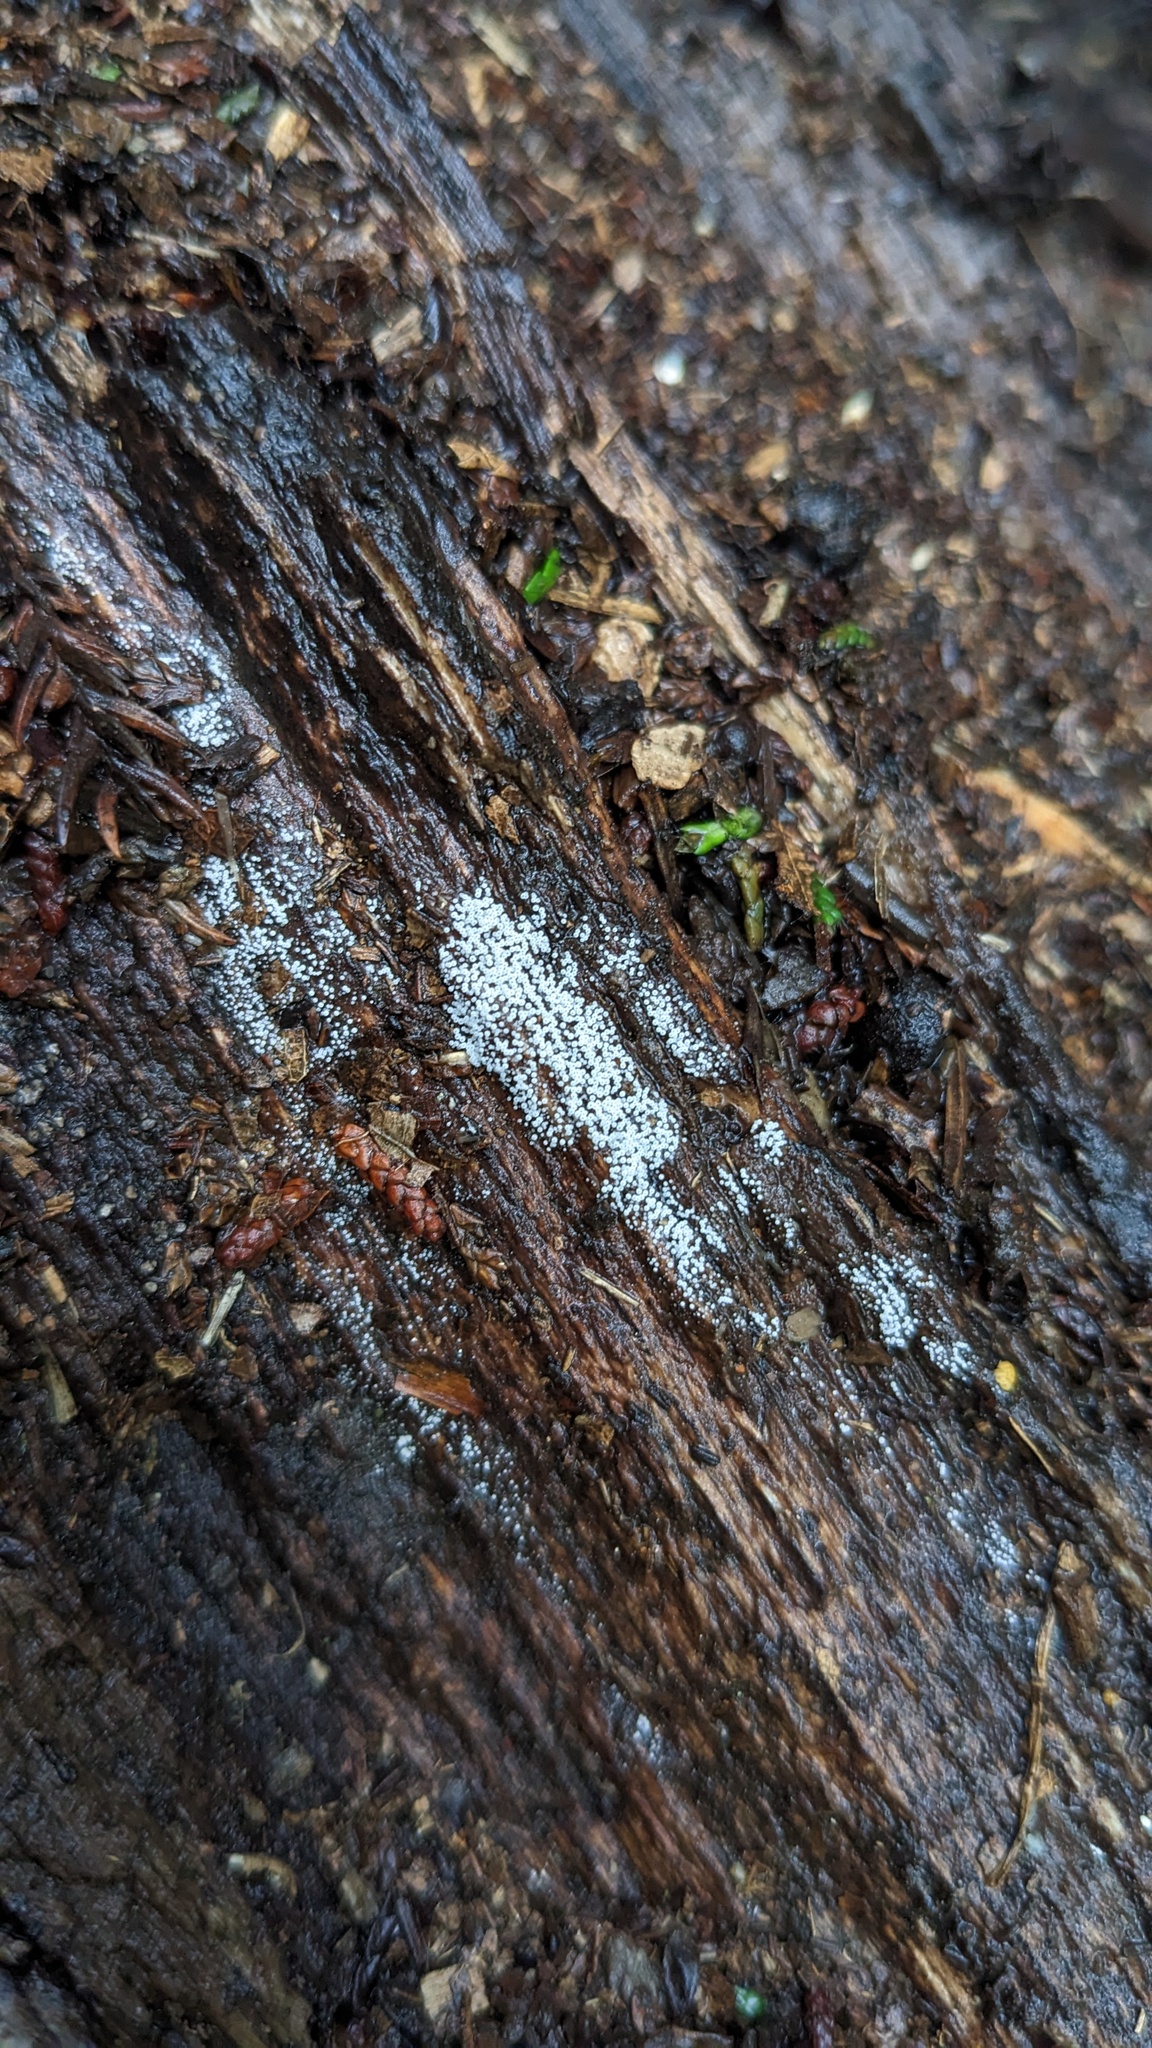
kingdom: Fungi
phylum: Basidiomycota
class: Agaricomycetes
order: Agaricales
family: Marasmiaceae
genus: Henningsomyces
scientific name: Henningsomyces candidus
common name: White tubelet
